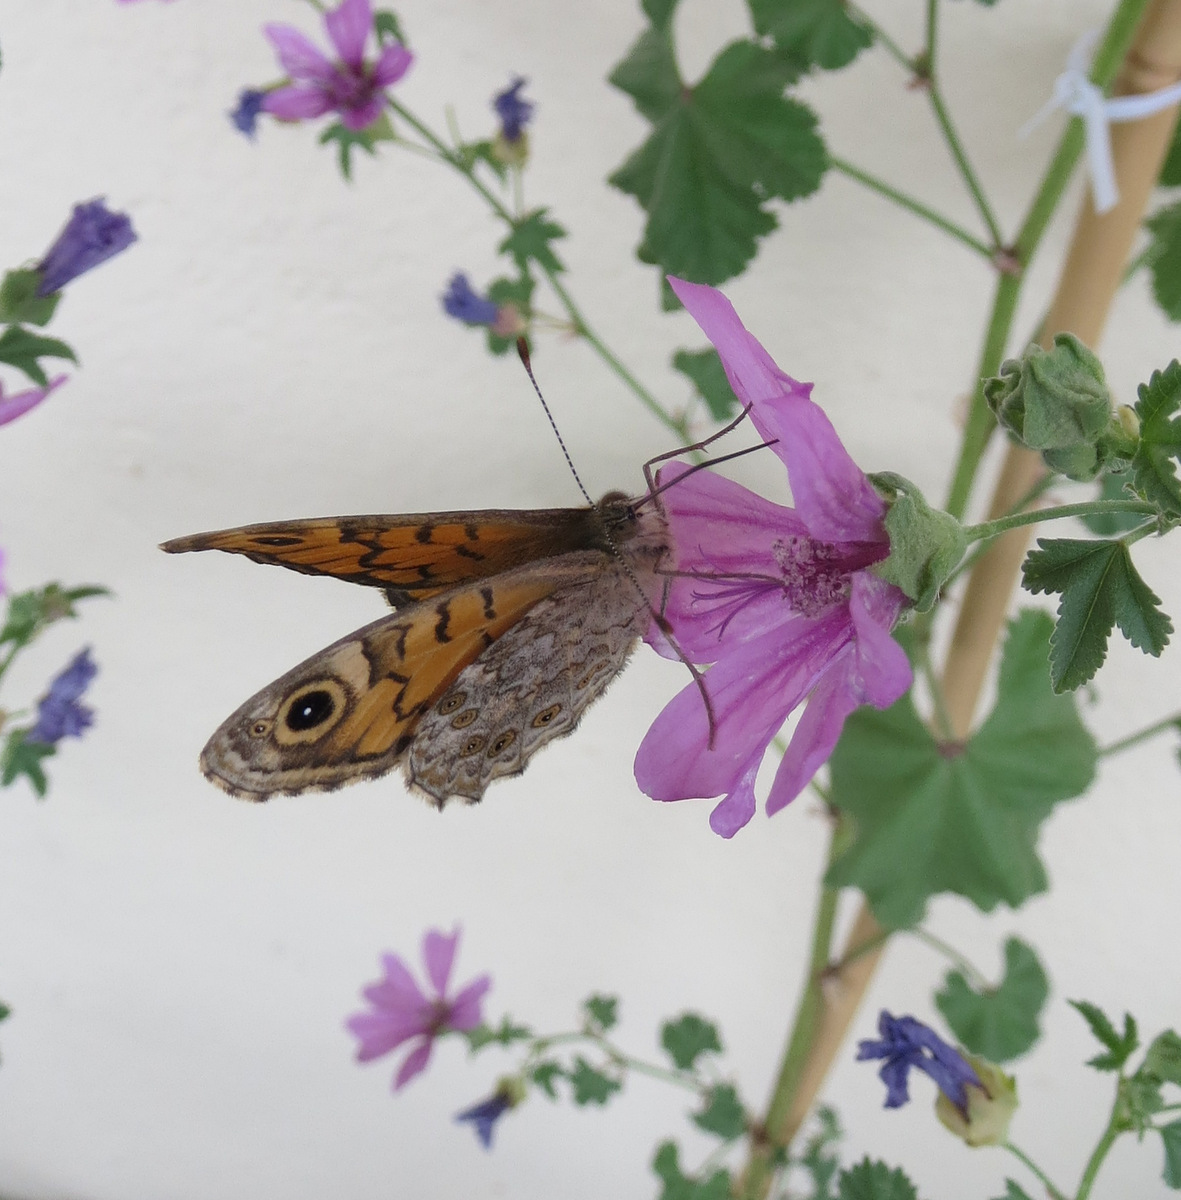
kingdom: Animalia
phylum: Arthropoda
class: Insecta
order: Lepidoptera
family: Nymphalidae
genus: Pararge
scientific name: Pararge Lasiommata megera
